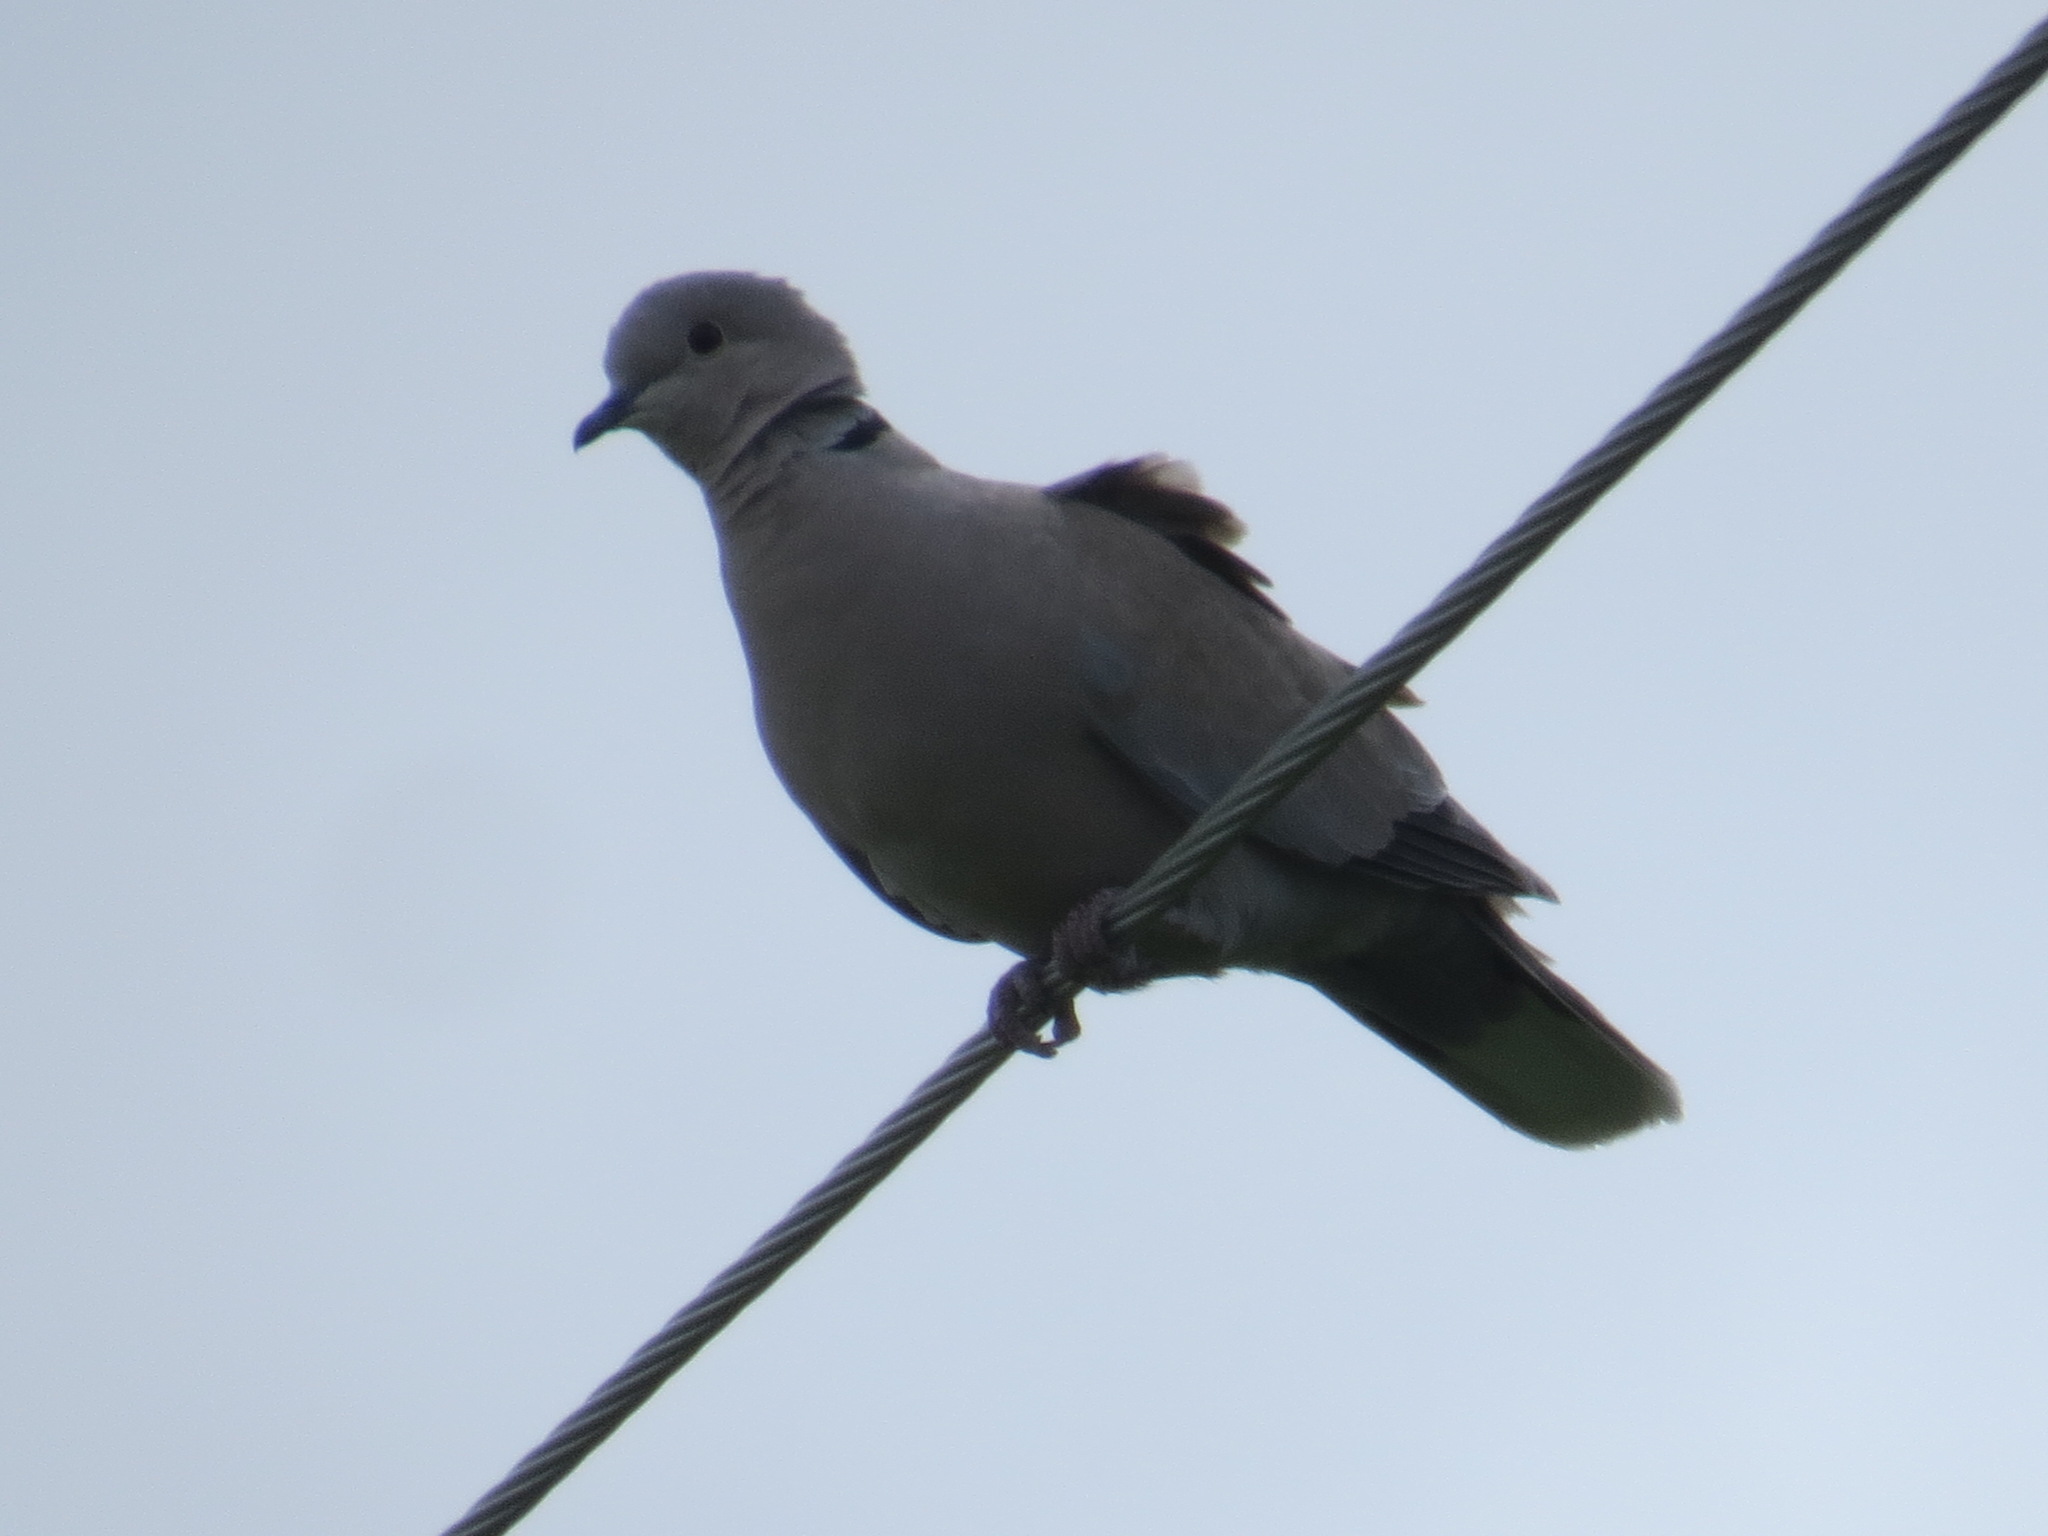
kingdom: Animalia
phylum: Chordata
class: Aves
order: Columbiformes
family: Columbidae
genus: Streptopelia
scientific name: Streptopelia decaocto
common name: Eurasian collared dove
